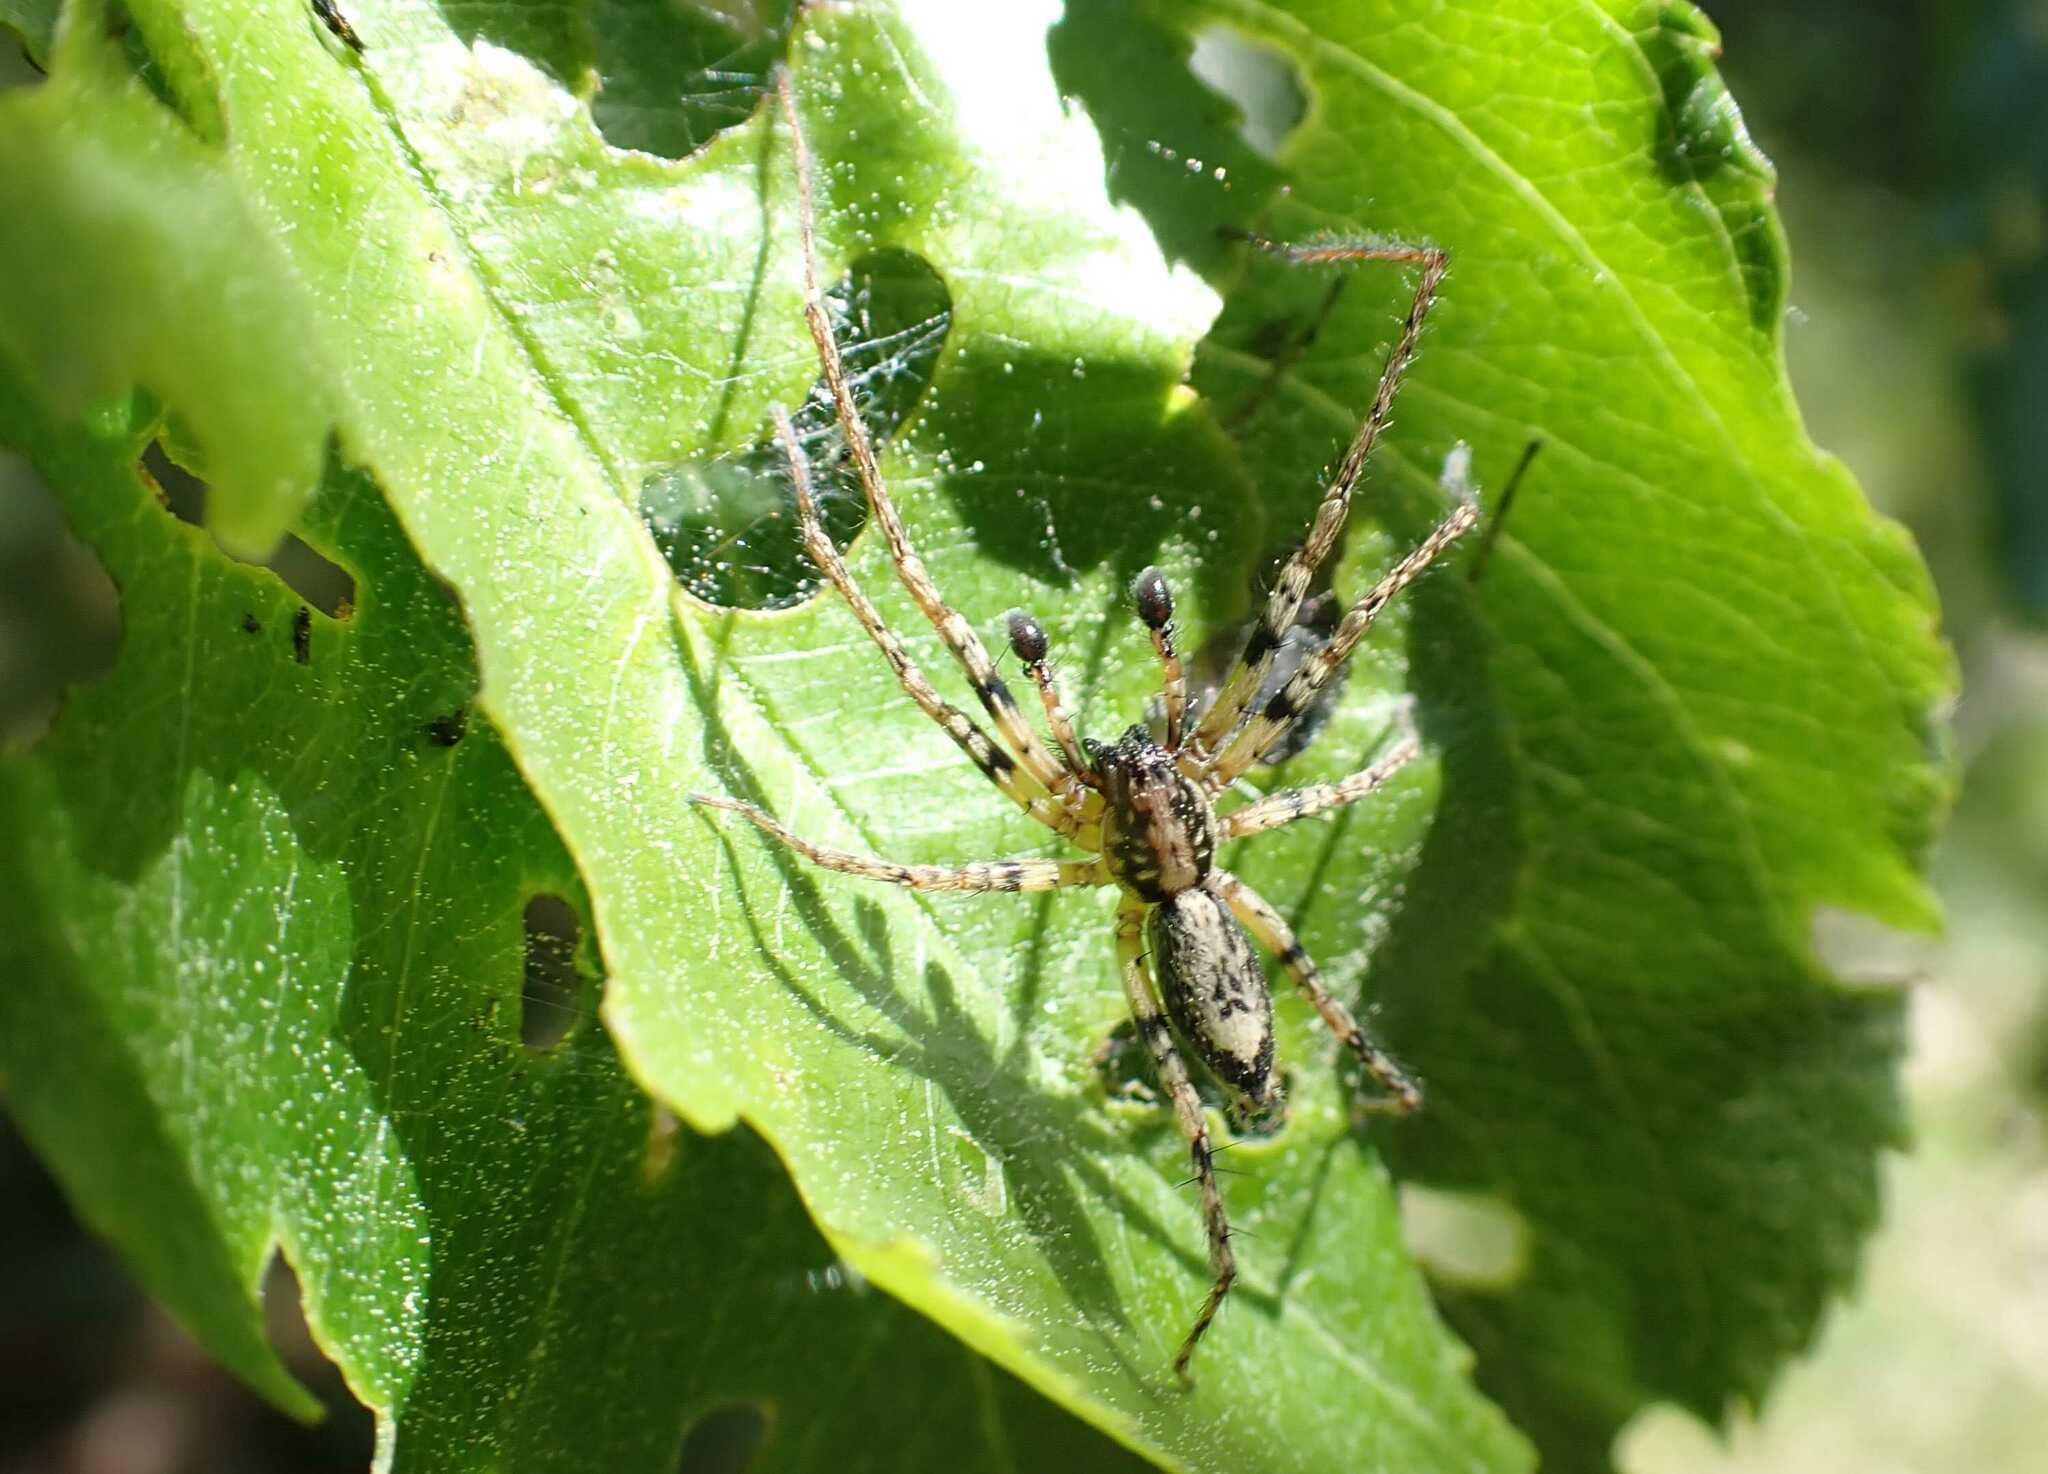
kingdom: Animalia
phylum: Arthropoda
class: Arachnida
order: Araneae
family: Anyphaenidae
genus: Anyphaena
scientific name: Anyphaena accentuata
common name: Buzzing spider
